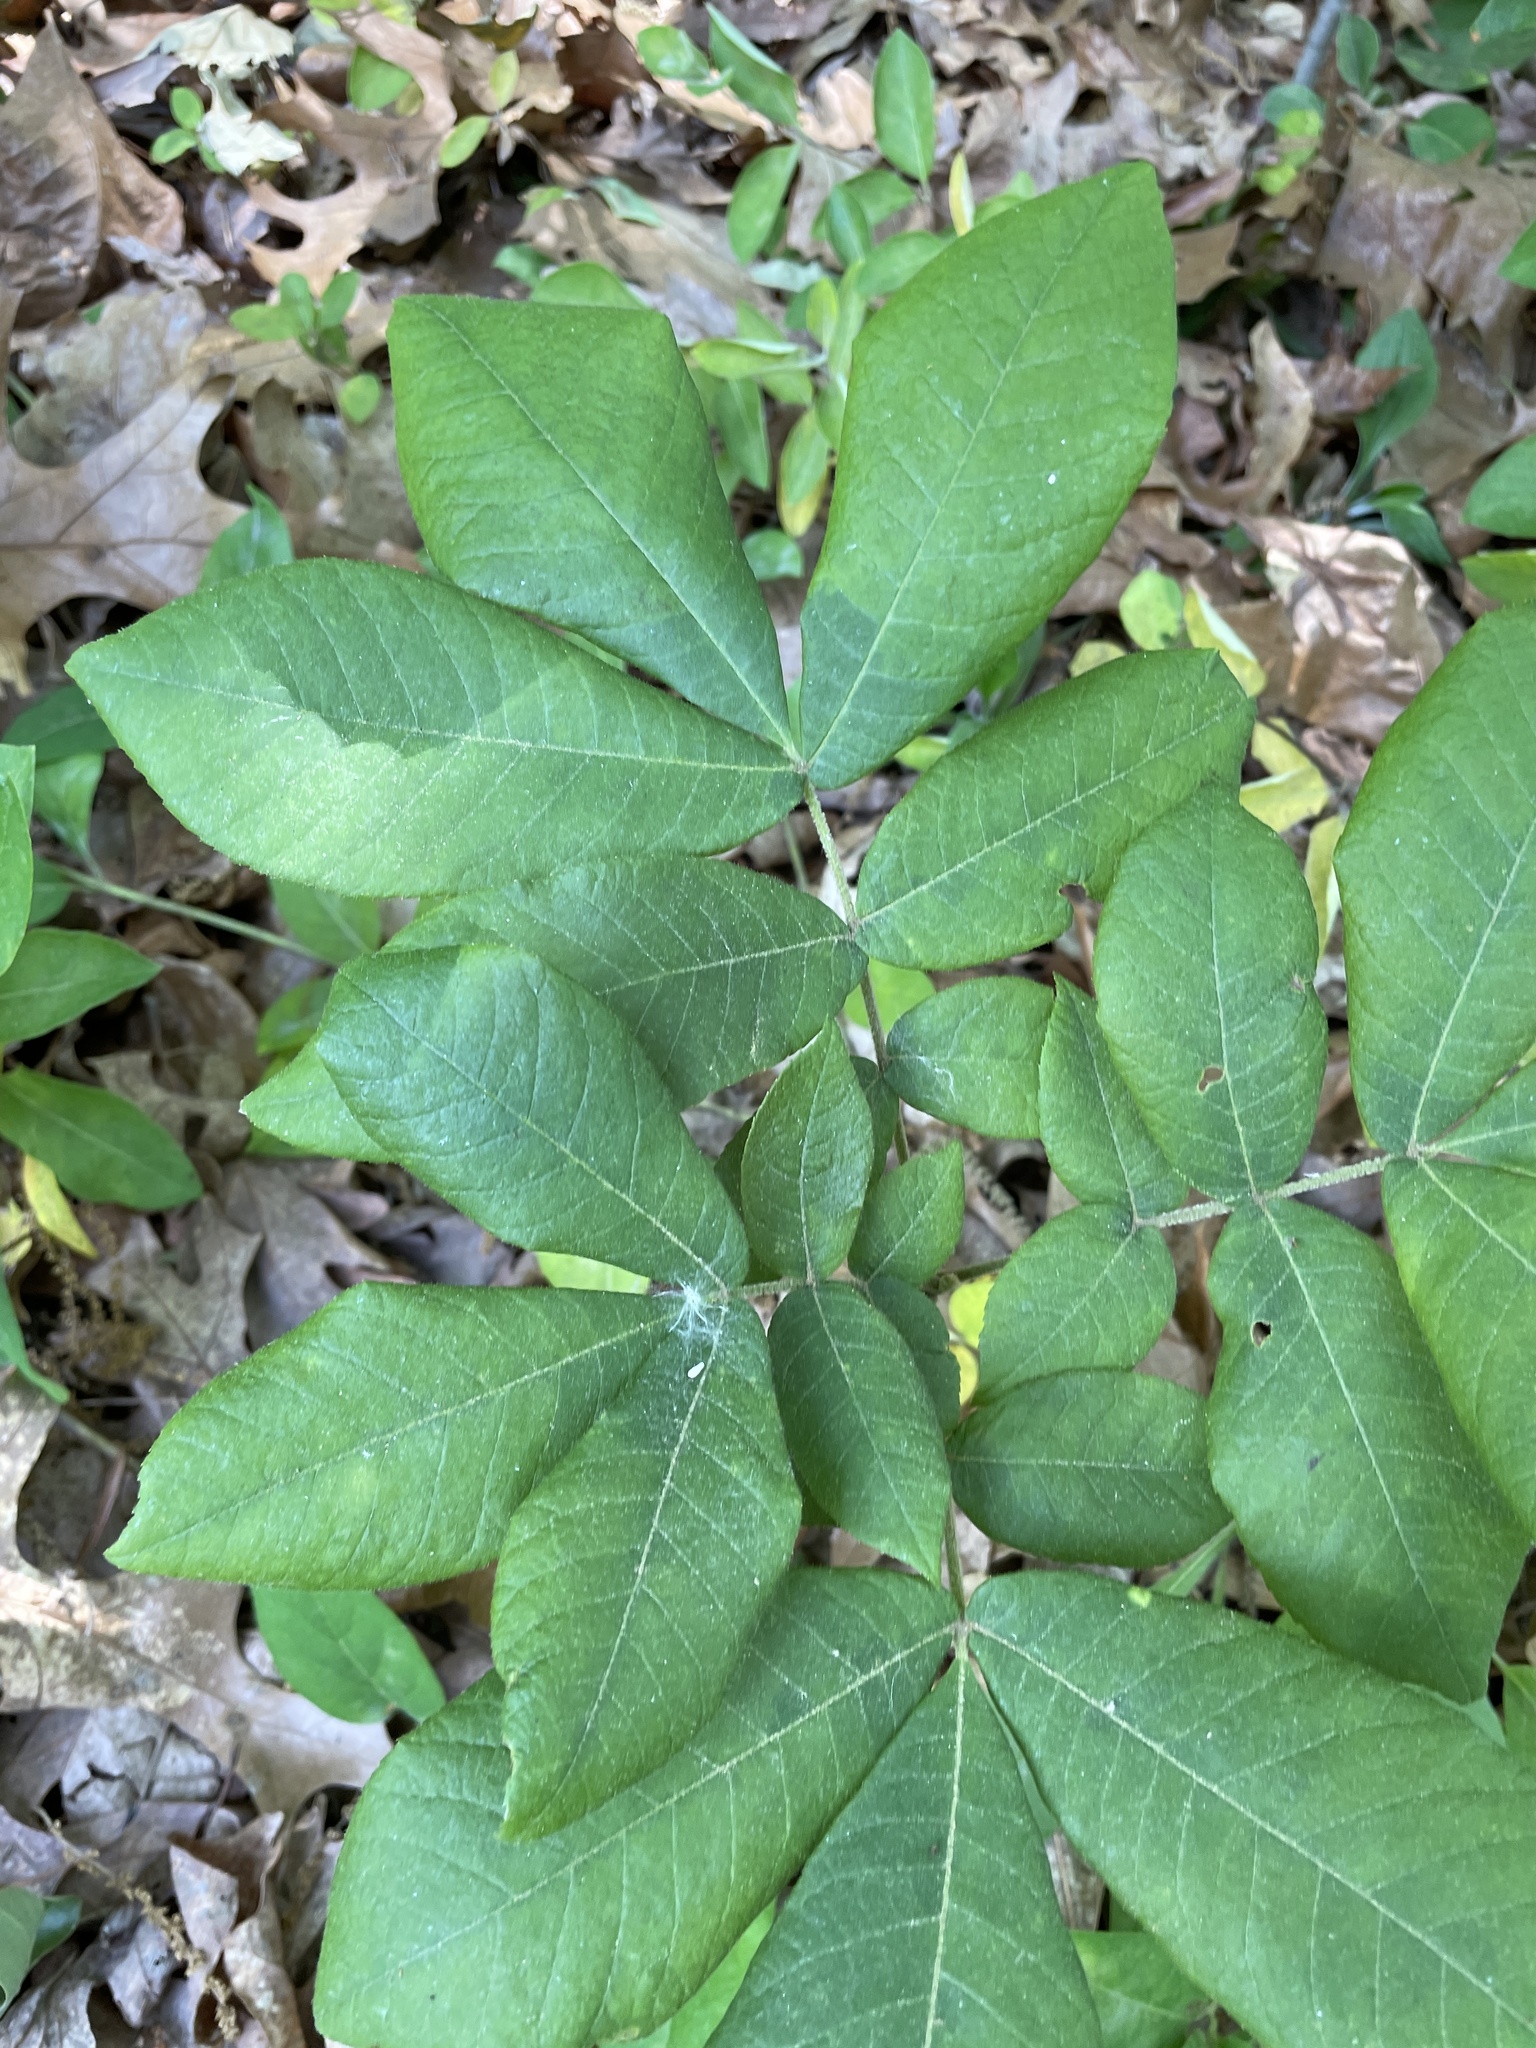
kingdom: Plantae
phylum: Tracheophyta
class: Magnoliopsida
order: Fagales
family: Juglandaceae
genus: Carya
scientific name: Carya alba
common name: Mockernut hickory
